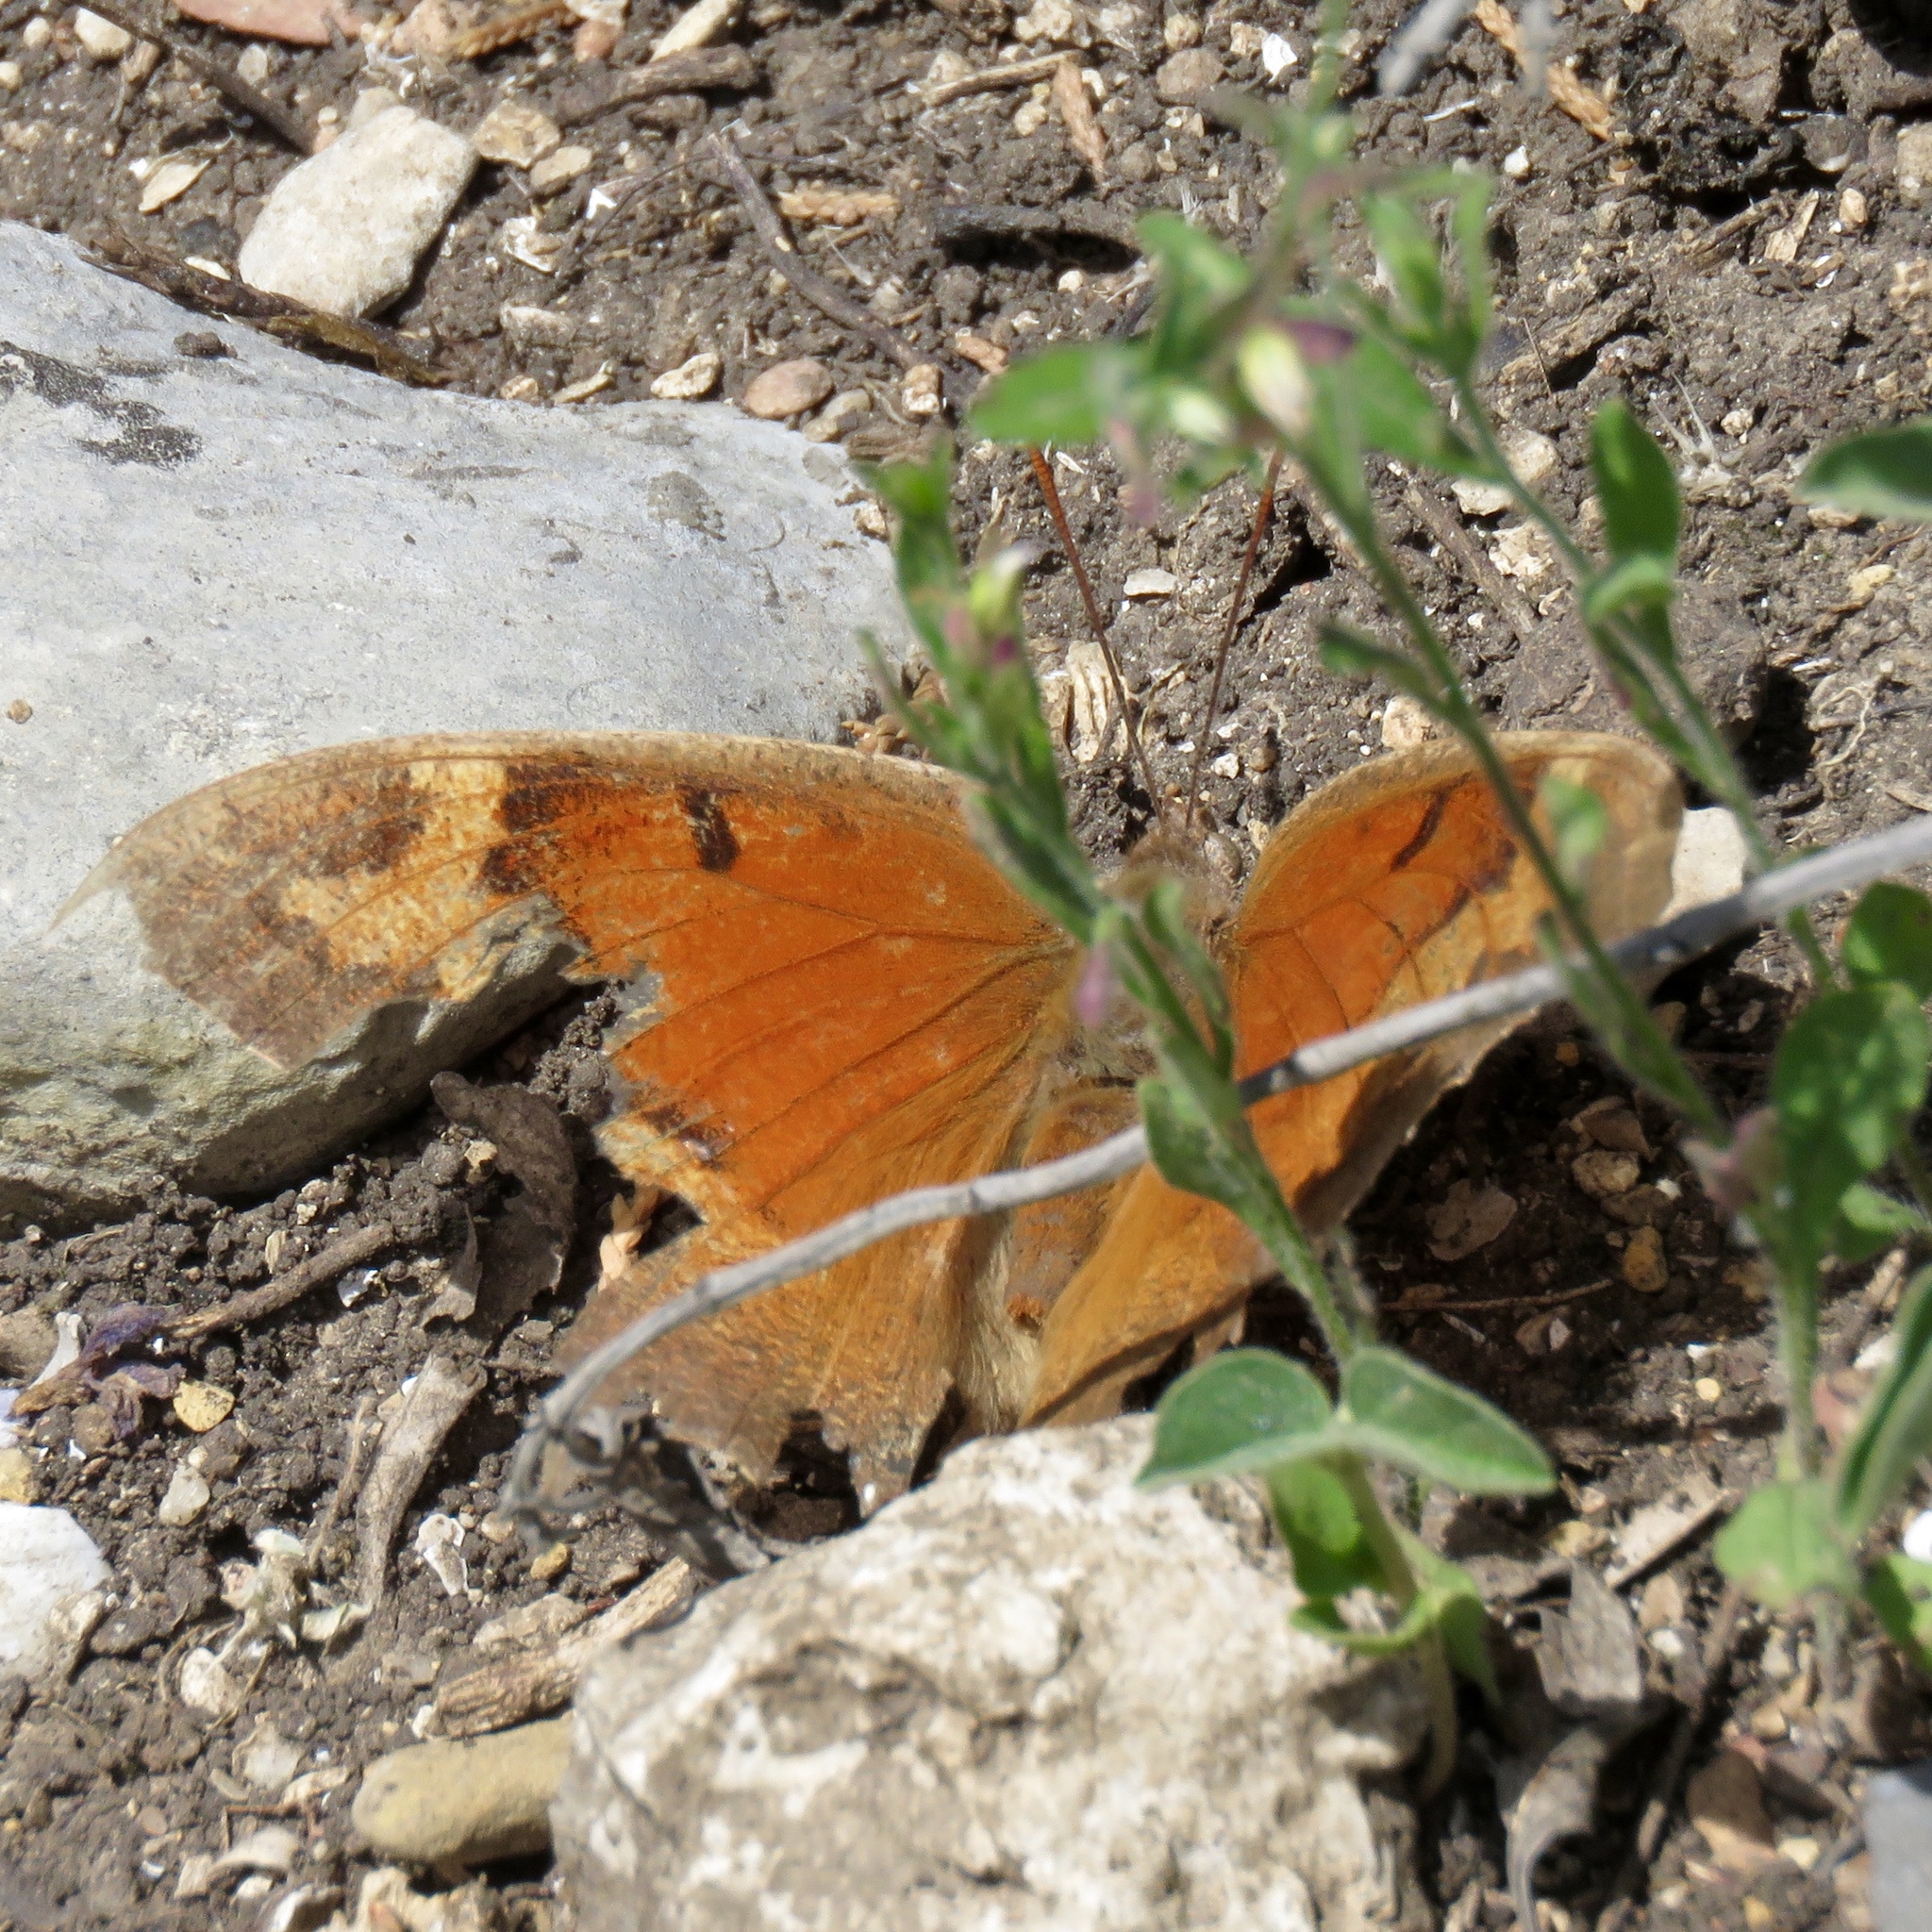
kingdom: Animalia
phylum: Arthropoda
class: Insecta
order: Lepidoptera
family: Nymphalidae
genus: Anaea
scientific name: Anaea andria
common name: Goatweed leafwing
